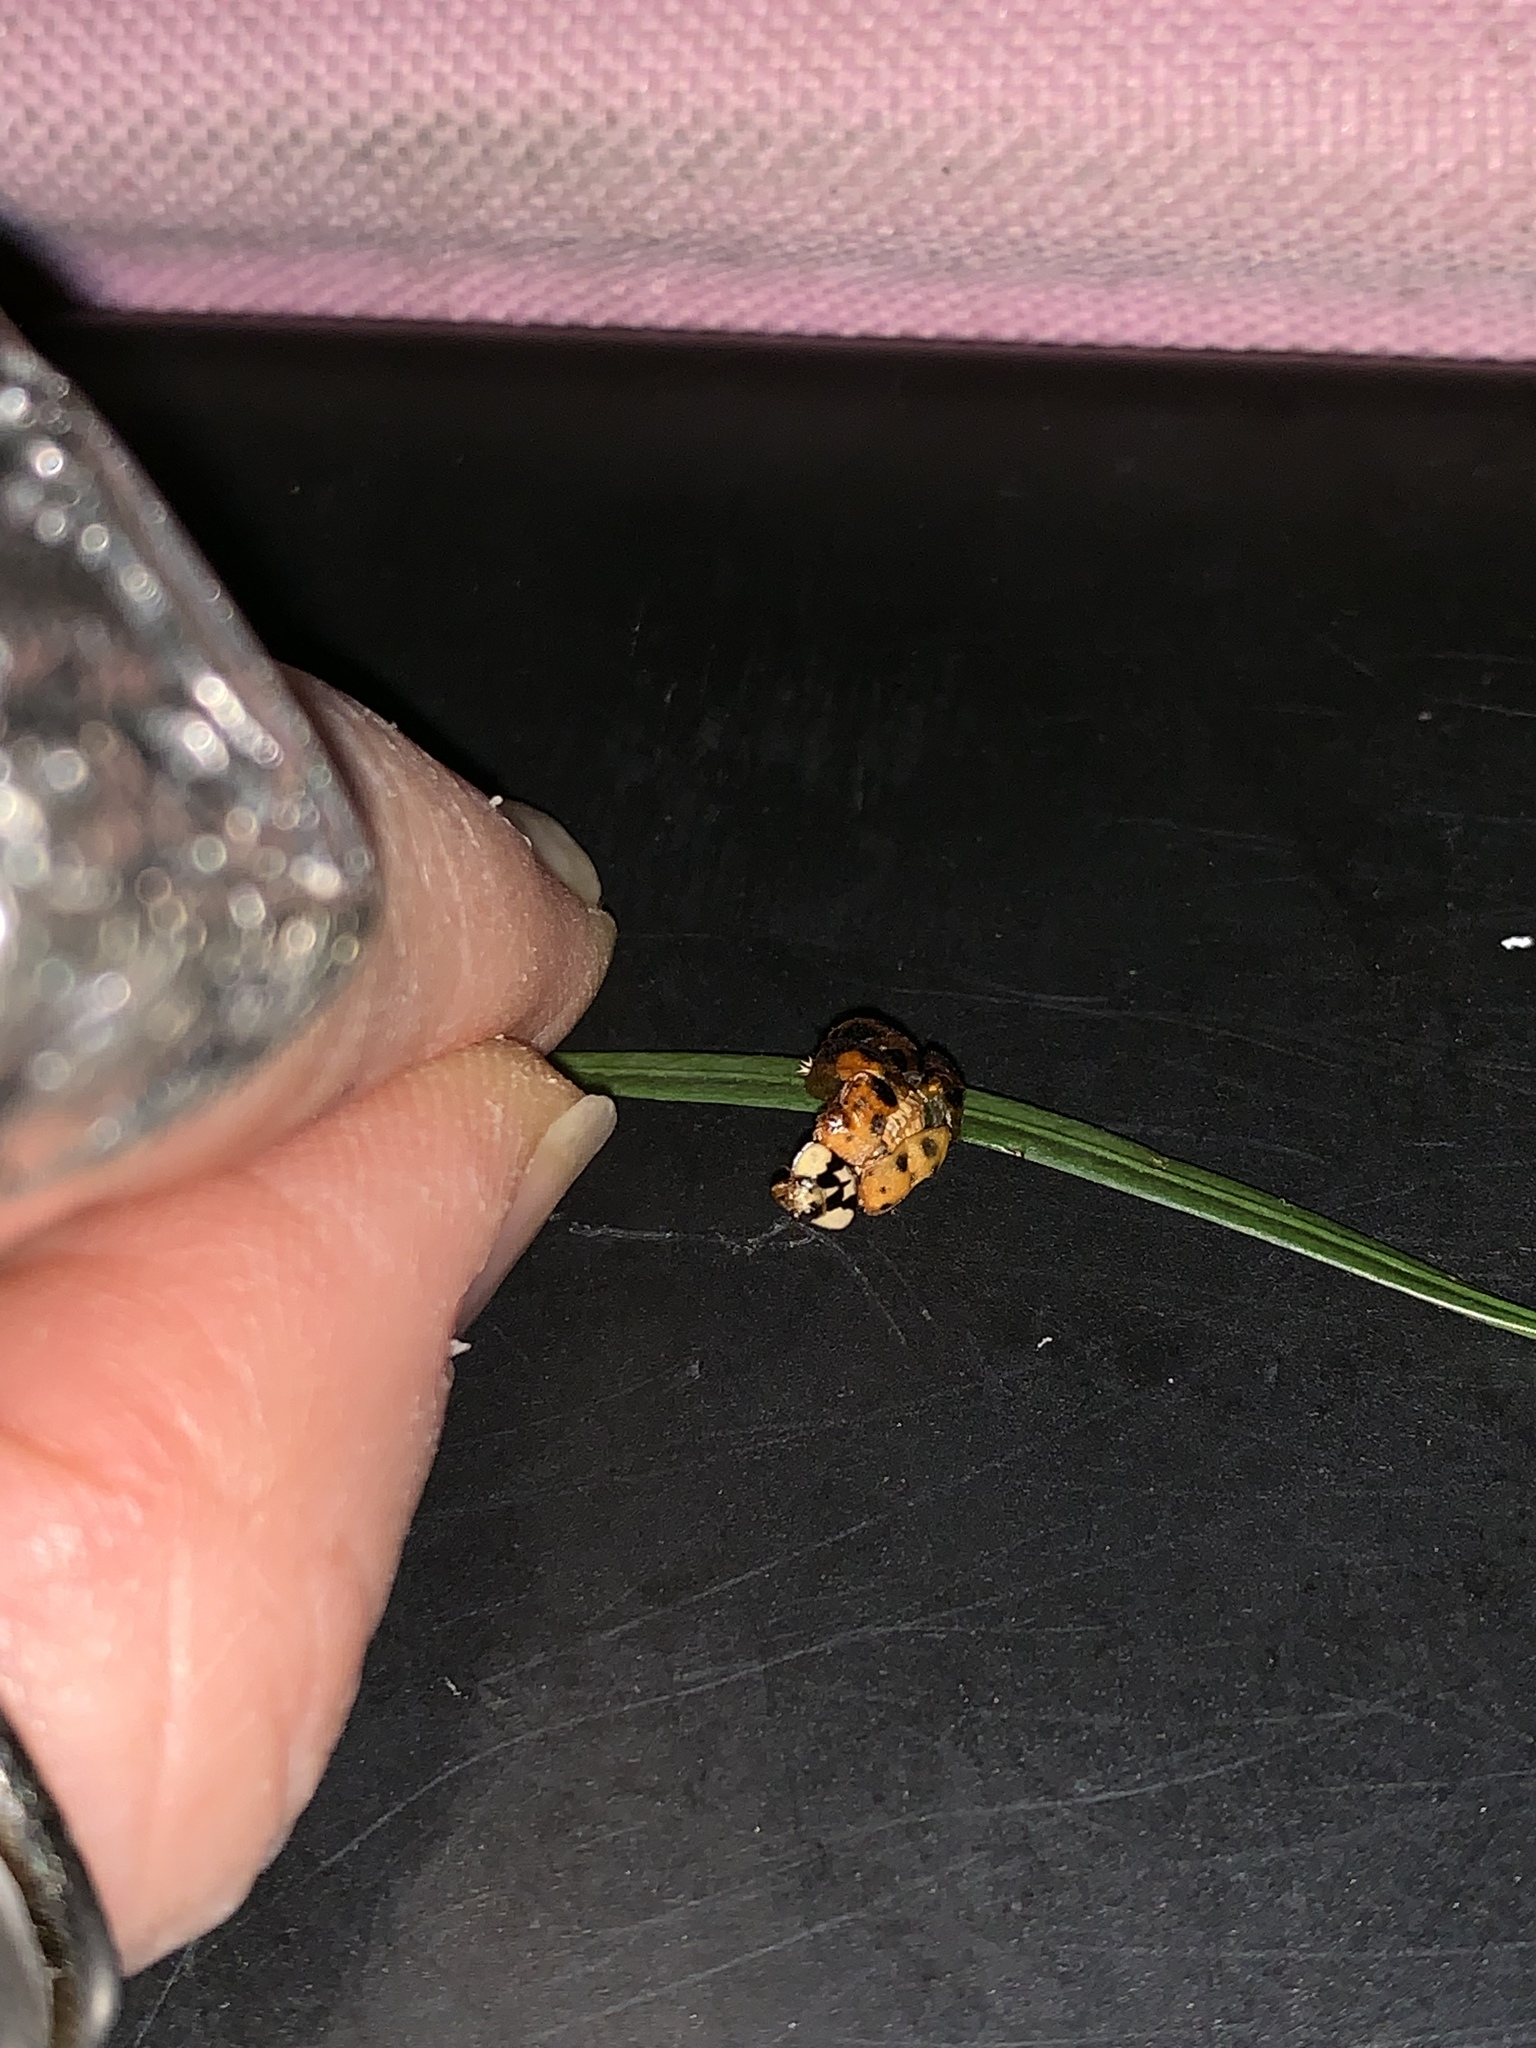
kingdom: Animalia
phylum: Arthropoda
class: Insecta
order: Coleoptera
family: Coccinellidae
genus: Harmonia
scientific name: Harmonia axyridis
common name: Harlequin ladybird
